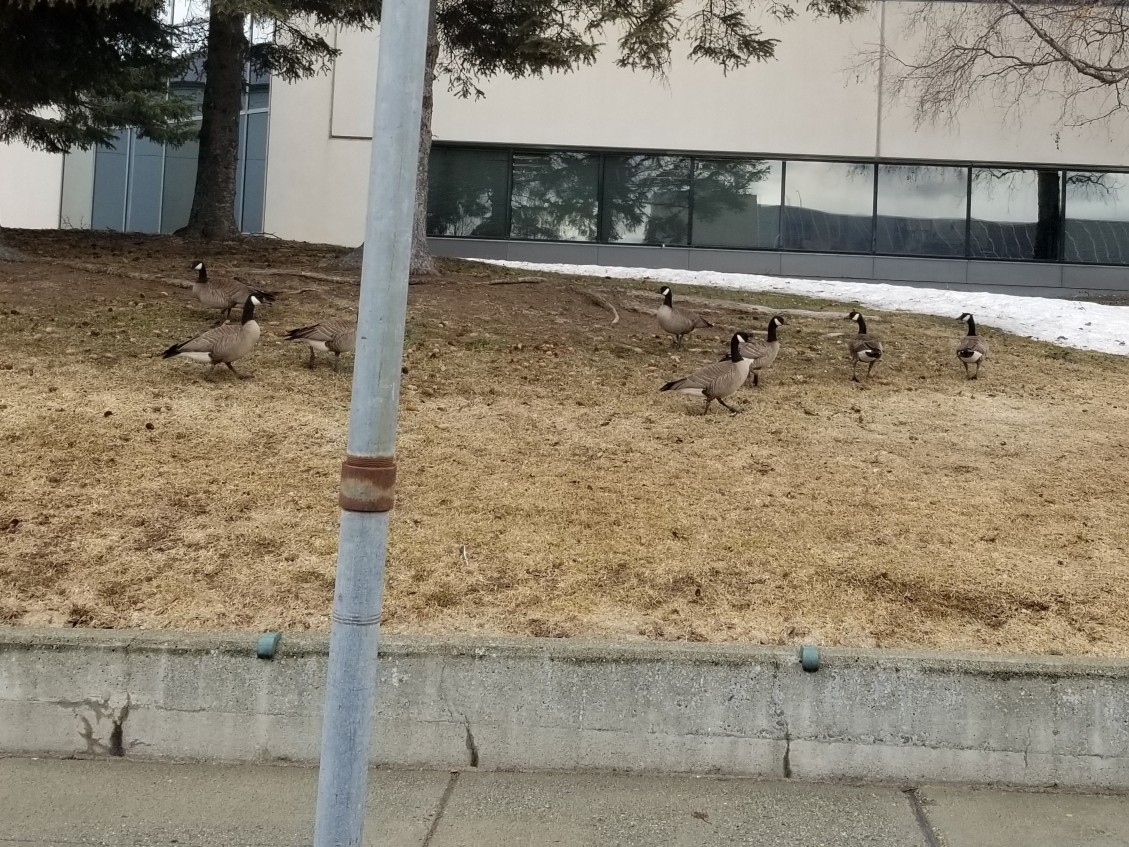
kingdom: Animalia
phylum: Chordata
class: Aves
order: Anseriformes
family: Anatidae
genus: Branta
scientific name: Branta canadensis
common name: Canada goose
